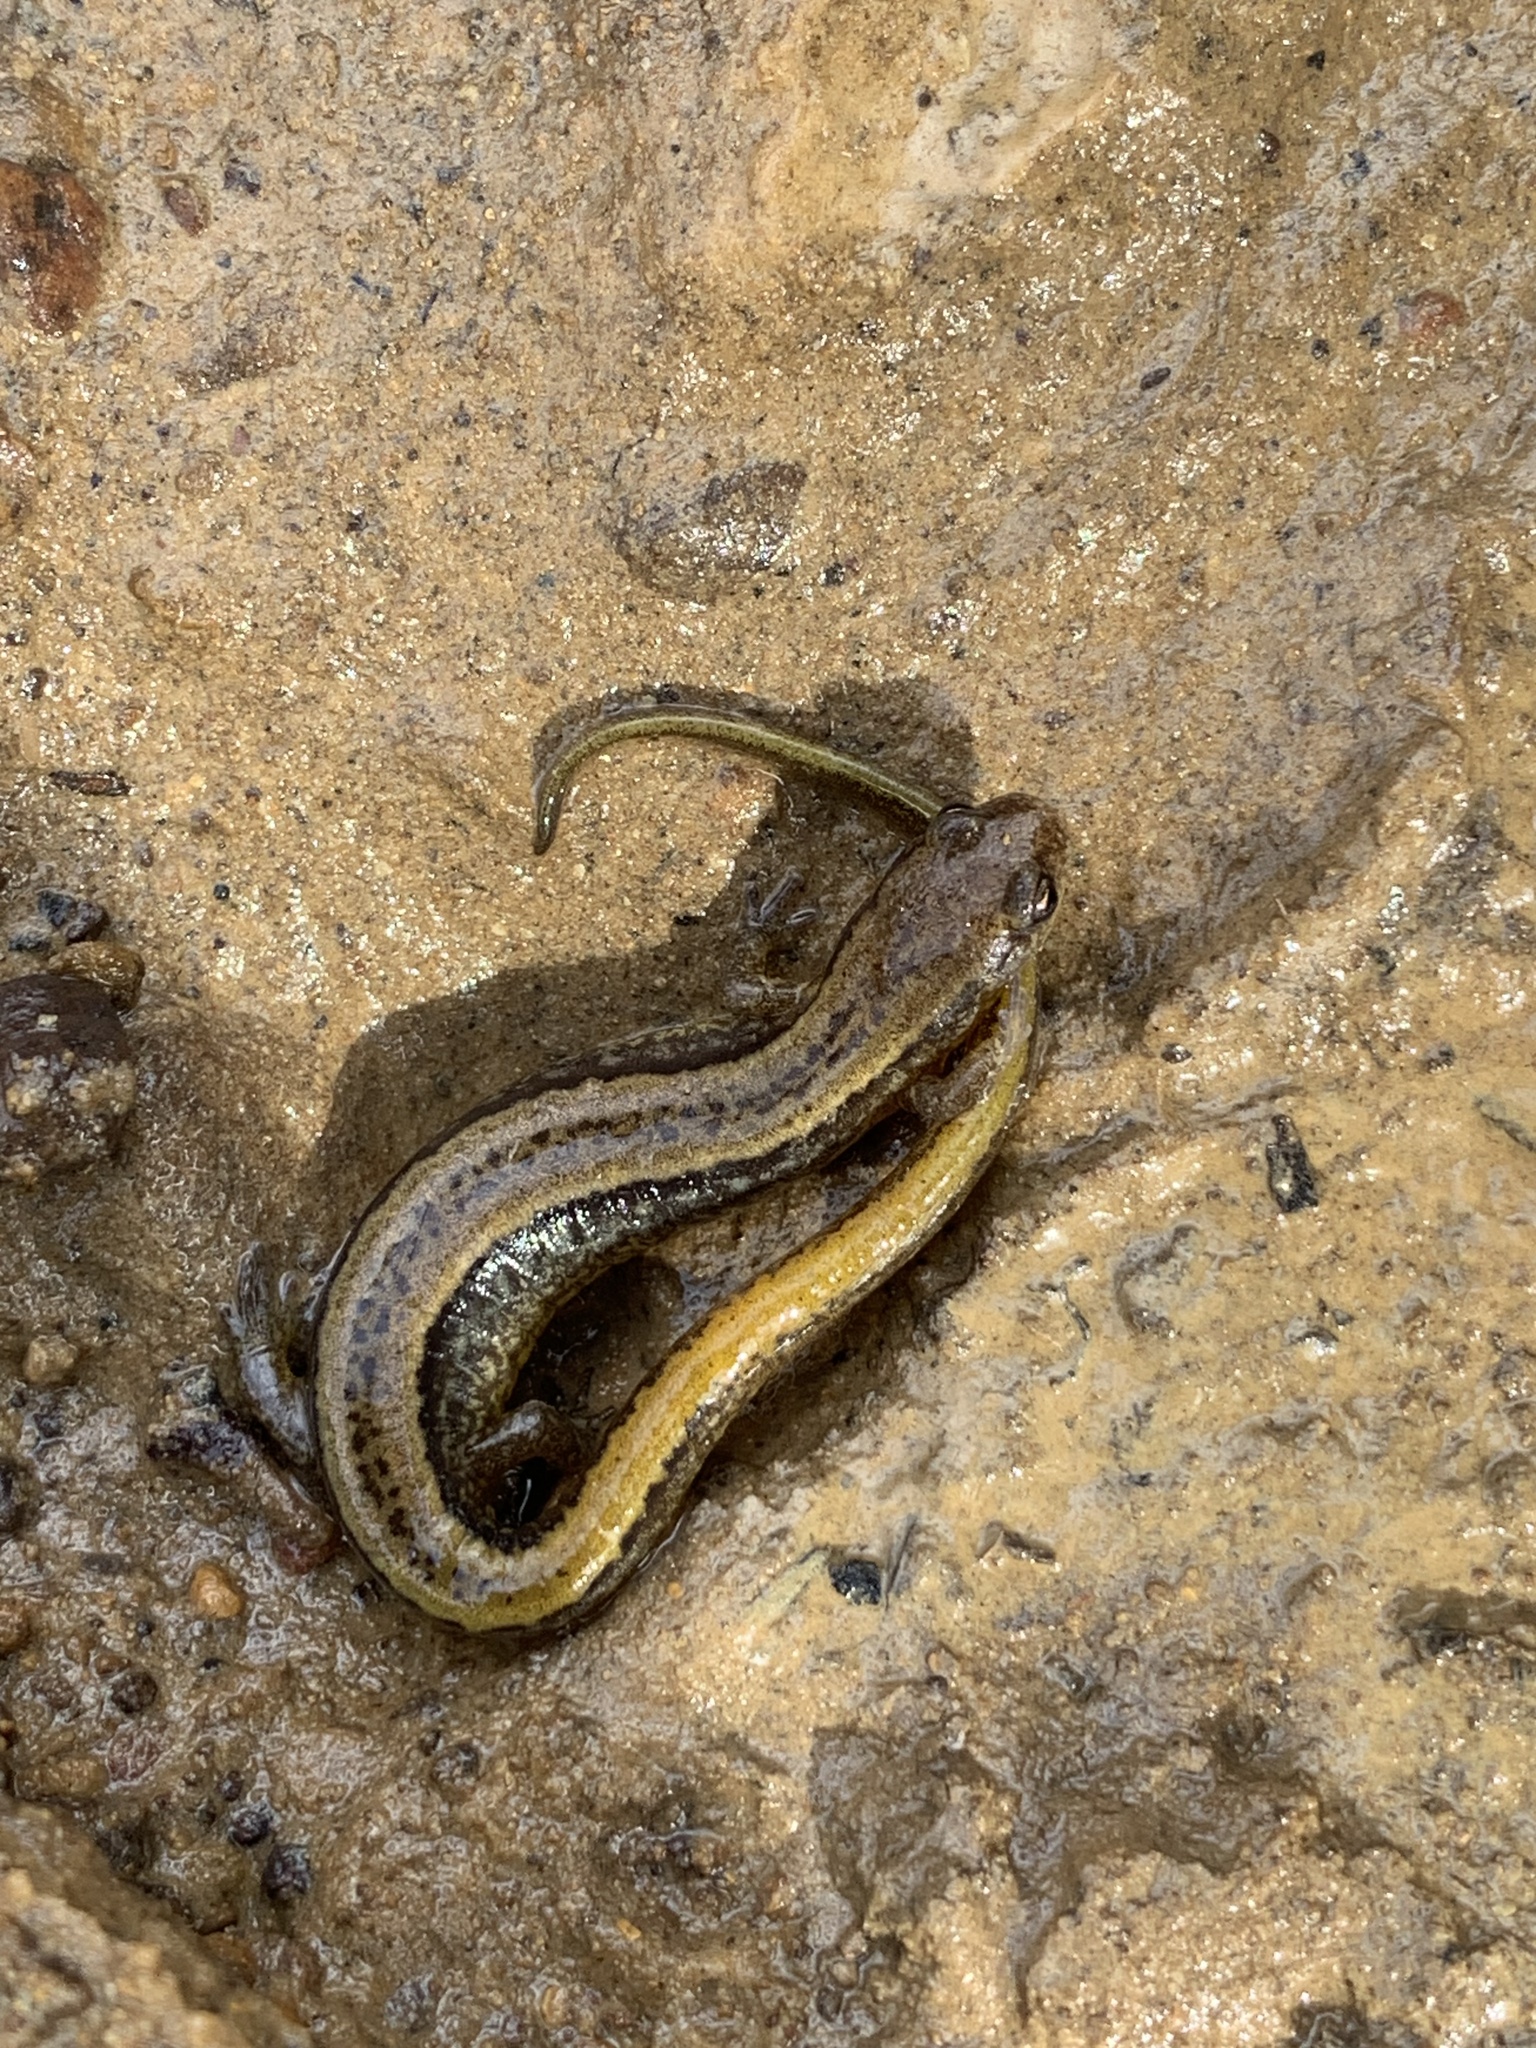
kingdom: Animalia
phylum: Chordata
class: Amphibia
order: Caudata
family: Plethodontidae
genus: Eurycea
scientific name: Eurycea cirrigera
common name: Southern two-lined salamander
